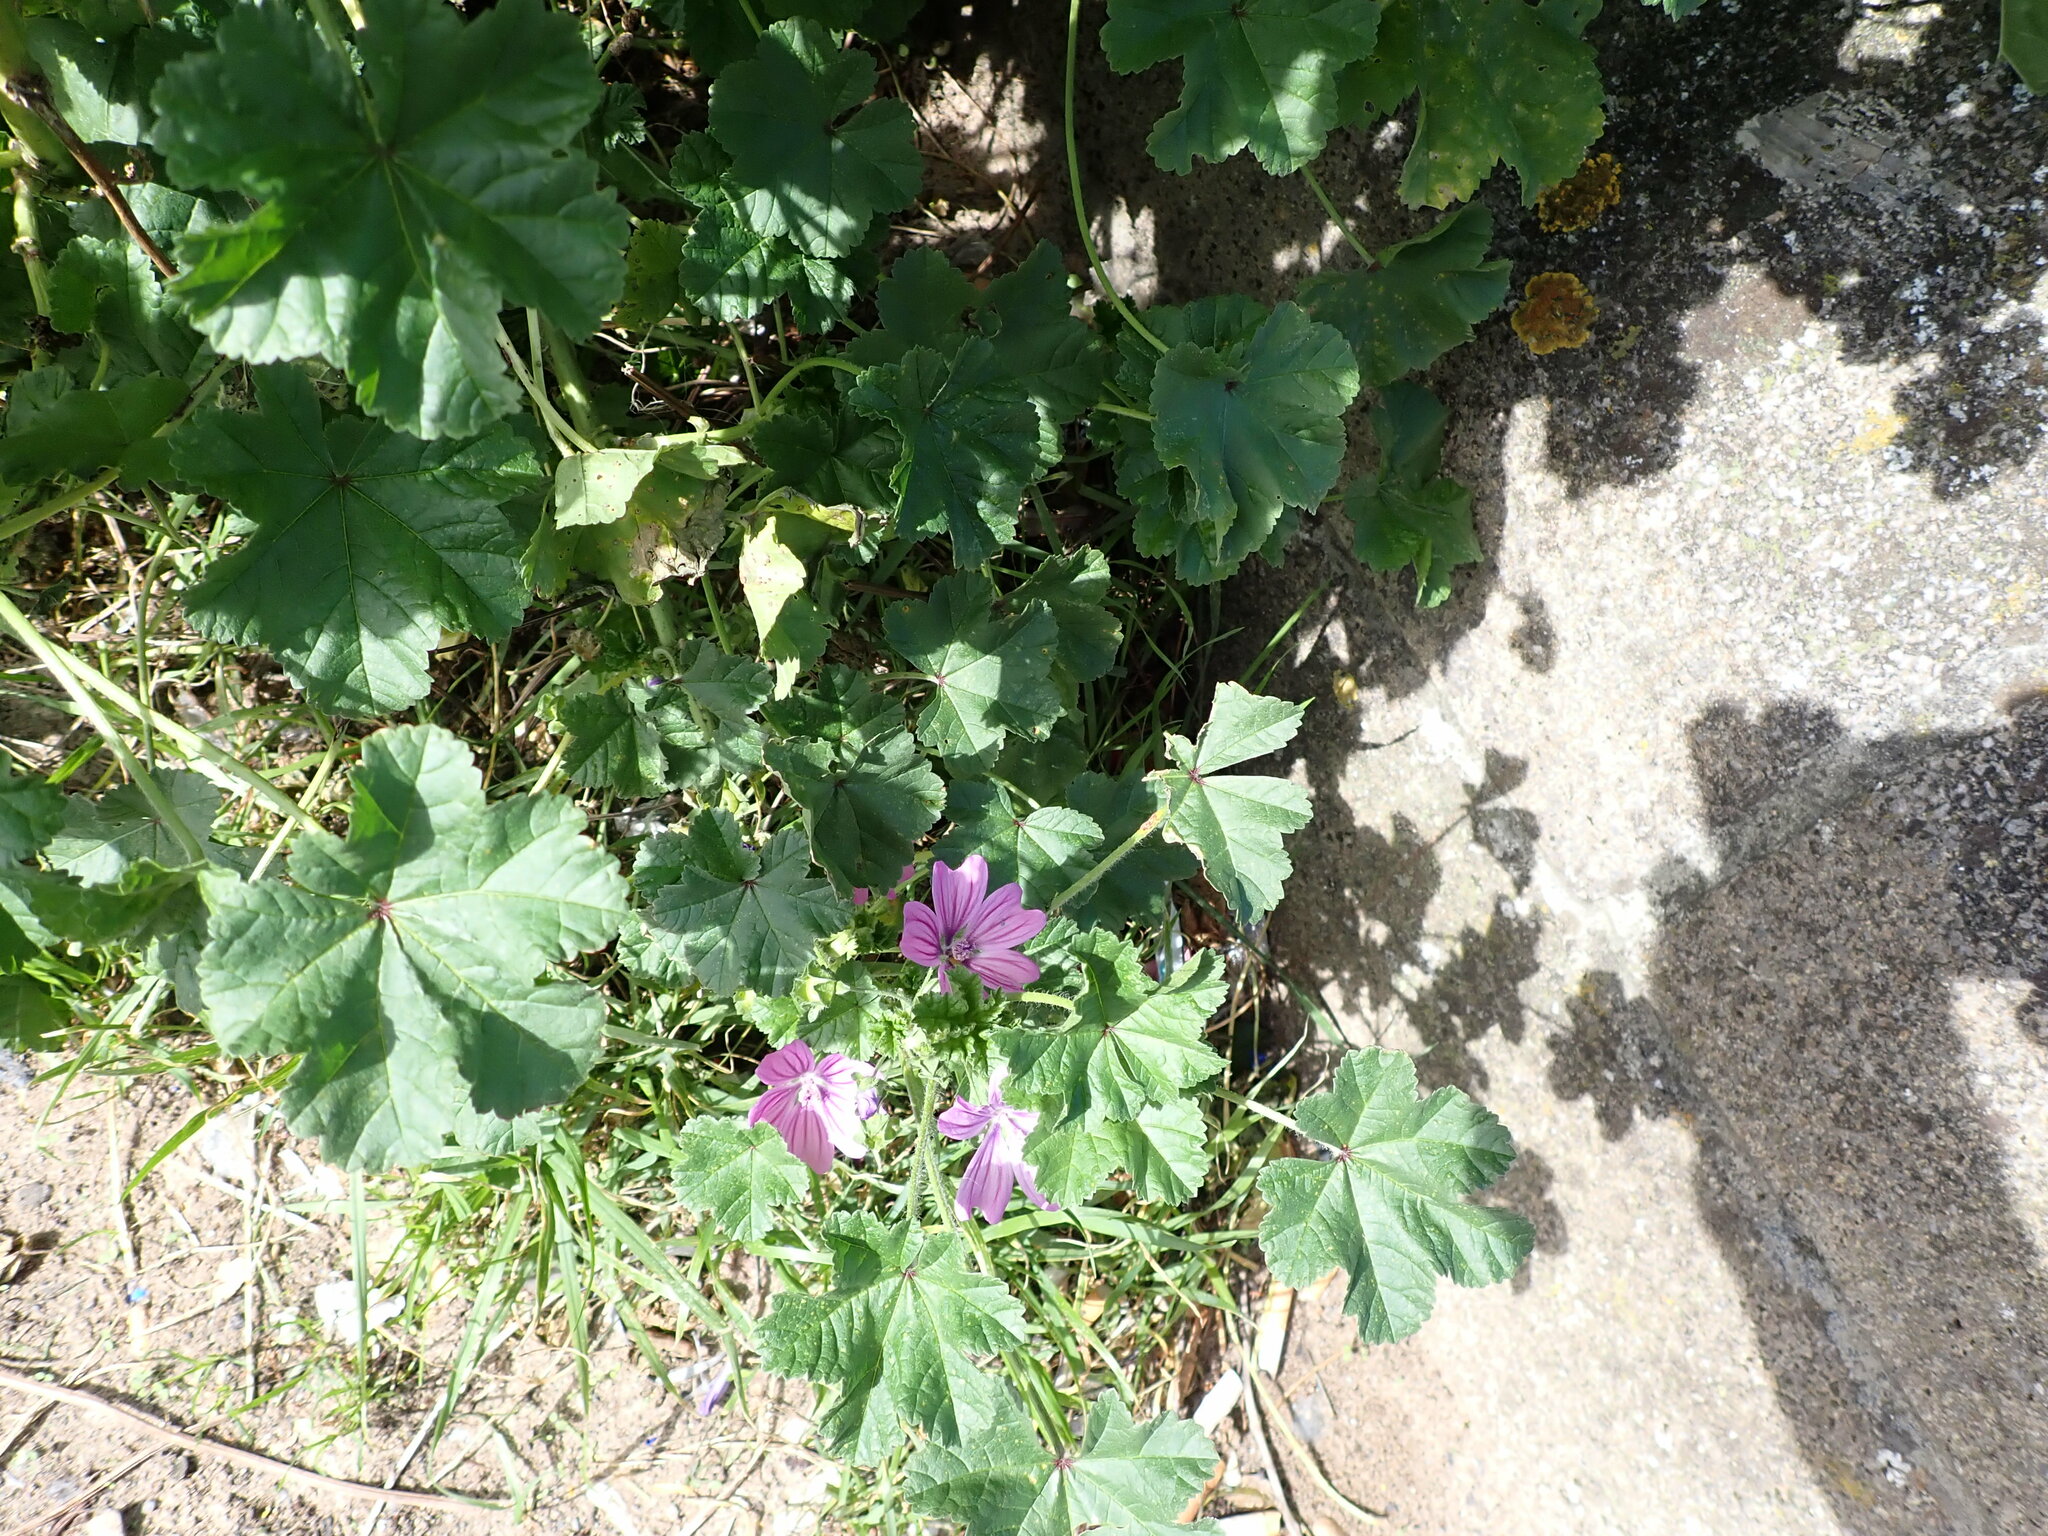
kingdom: Plantae
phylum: Tracheophyta
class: Magnoliopsida
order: Malvales
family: Malvaceae
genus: Malva
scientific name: Malva sylvestris
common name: Common mallow
